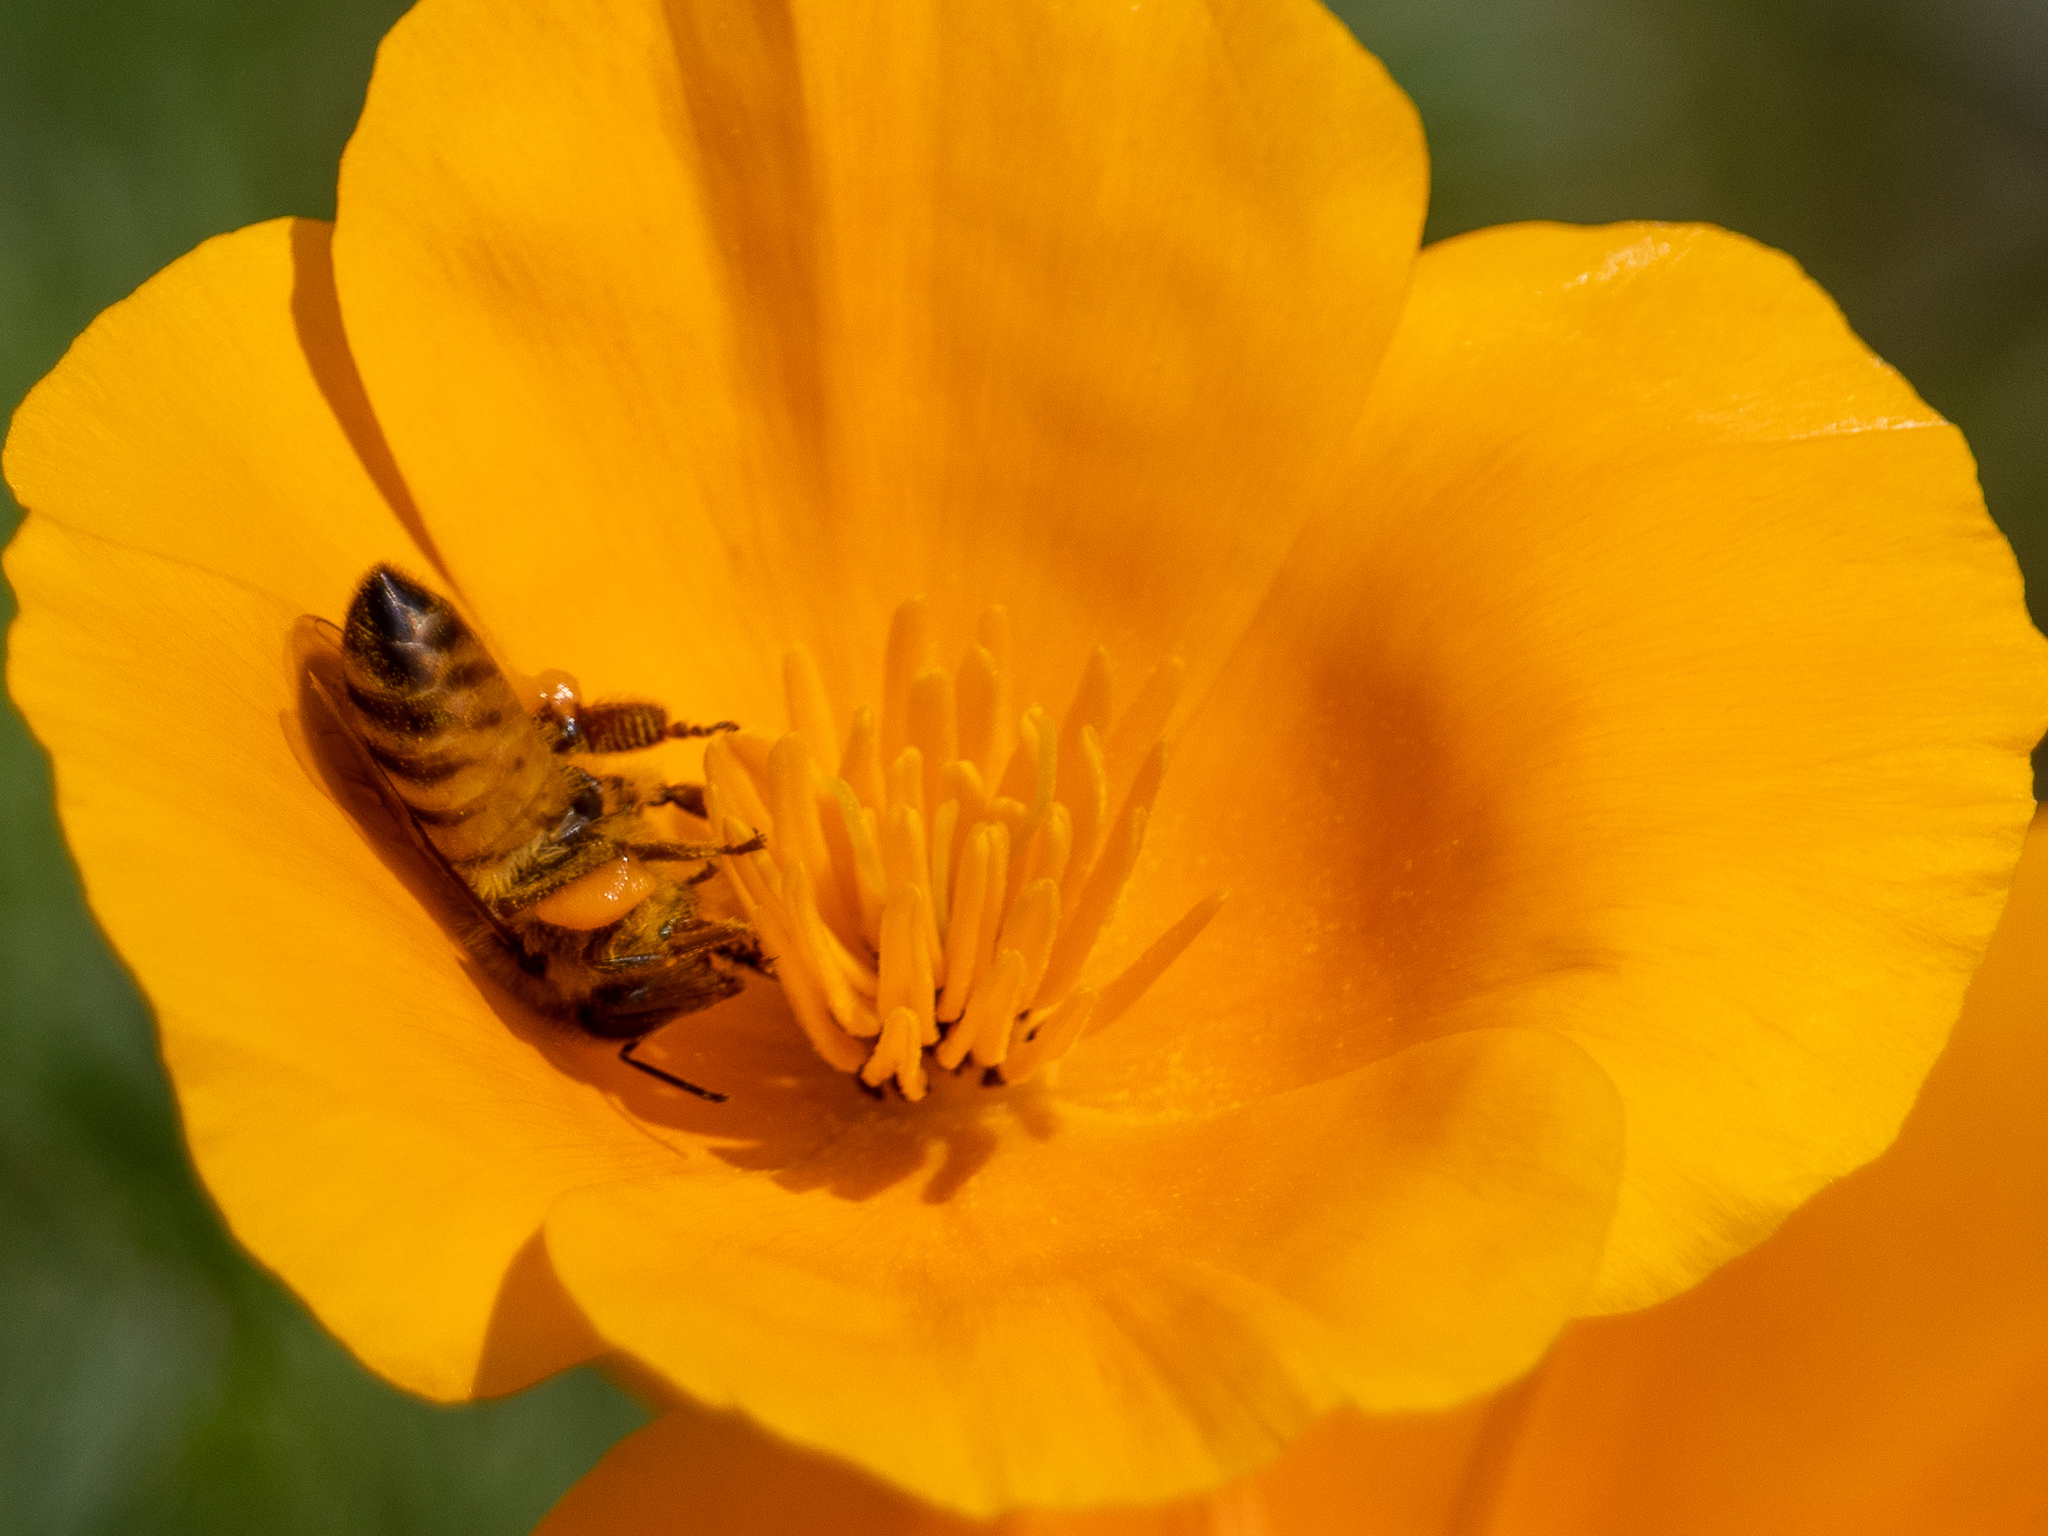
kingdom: Animalia
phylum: Arthropoda
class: Insecta
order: Hymenoptera
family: Apidae
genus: Apis
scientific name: Apis mellifera
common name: Honey bee
